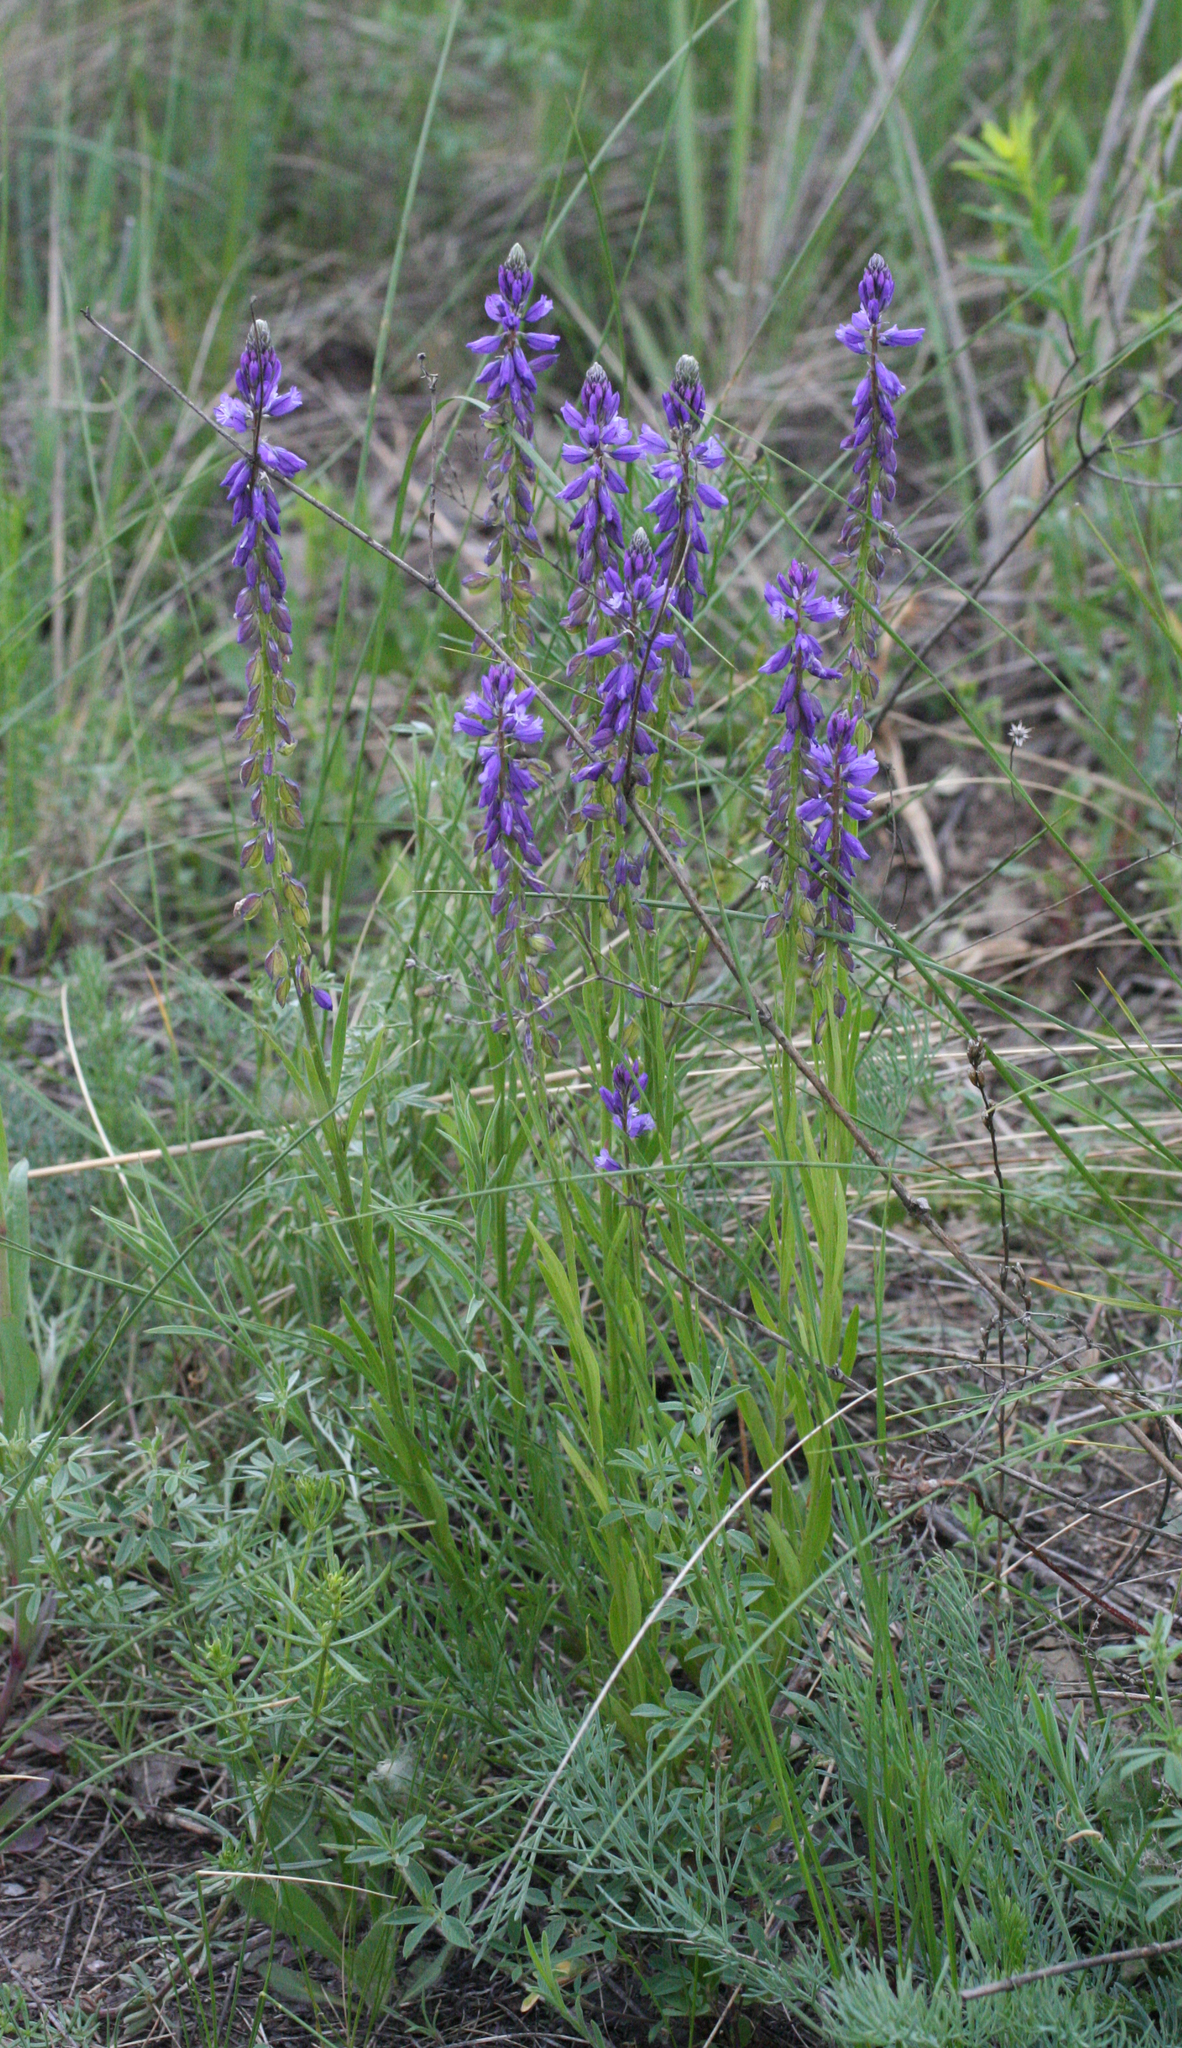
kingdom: Plantae
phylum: Tracheophyta
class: Magnoliopsida
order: Fabales
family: Polygalaceae
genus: Polygala
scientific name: Polygala comosa
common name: Tufted milkwort
